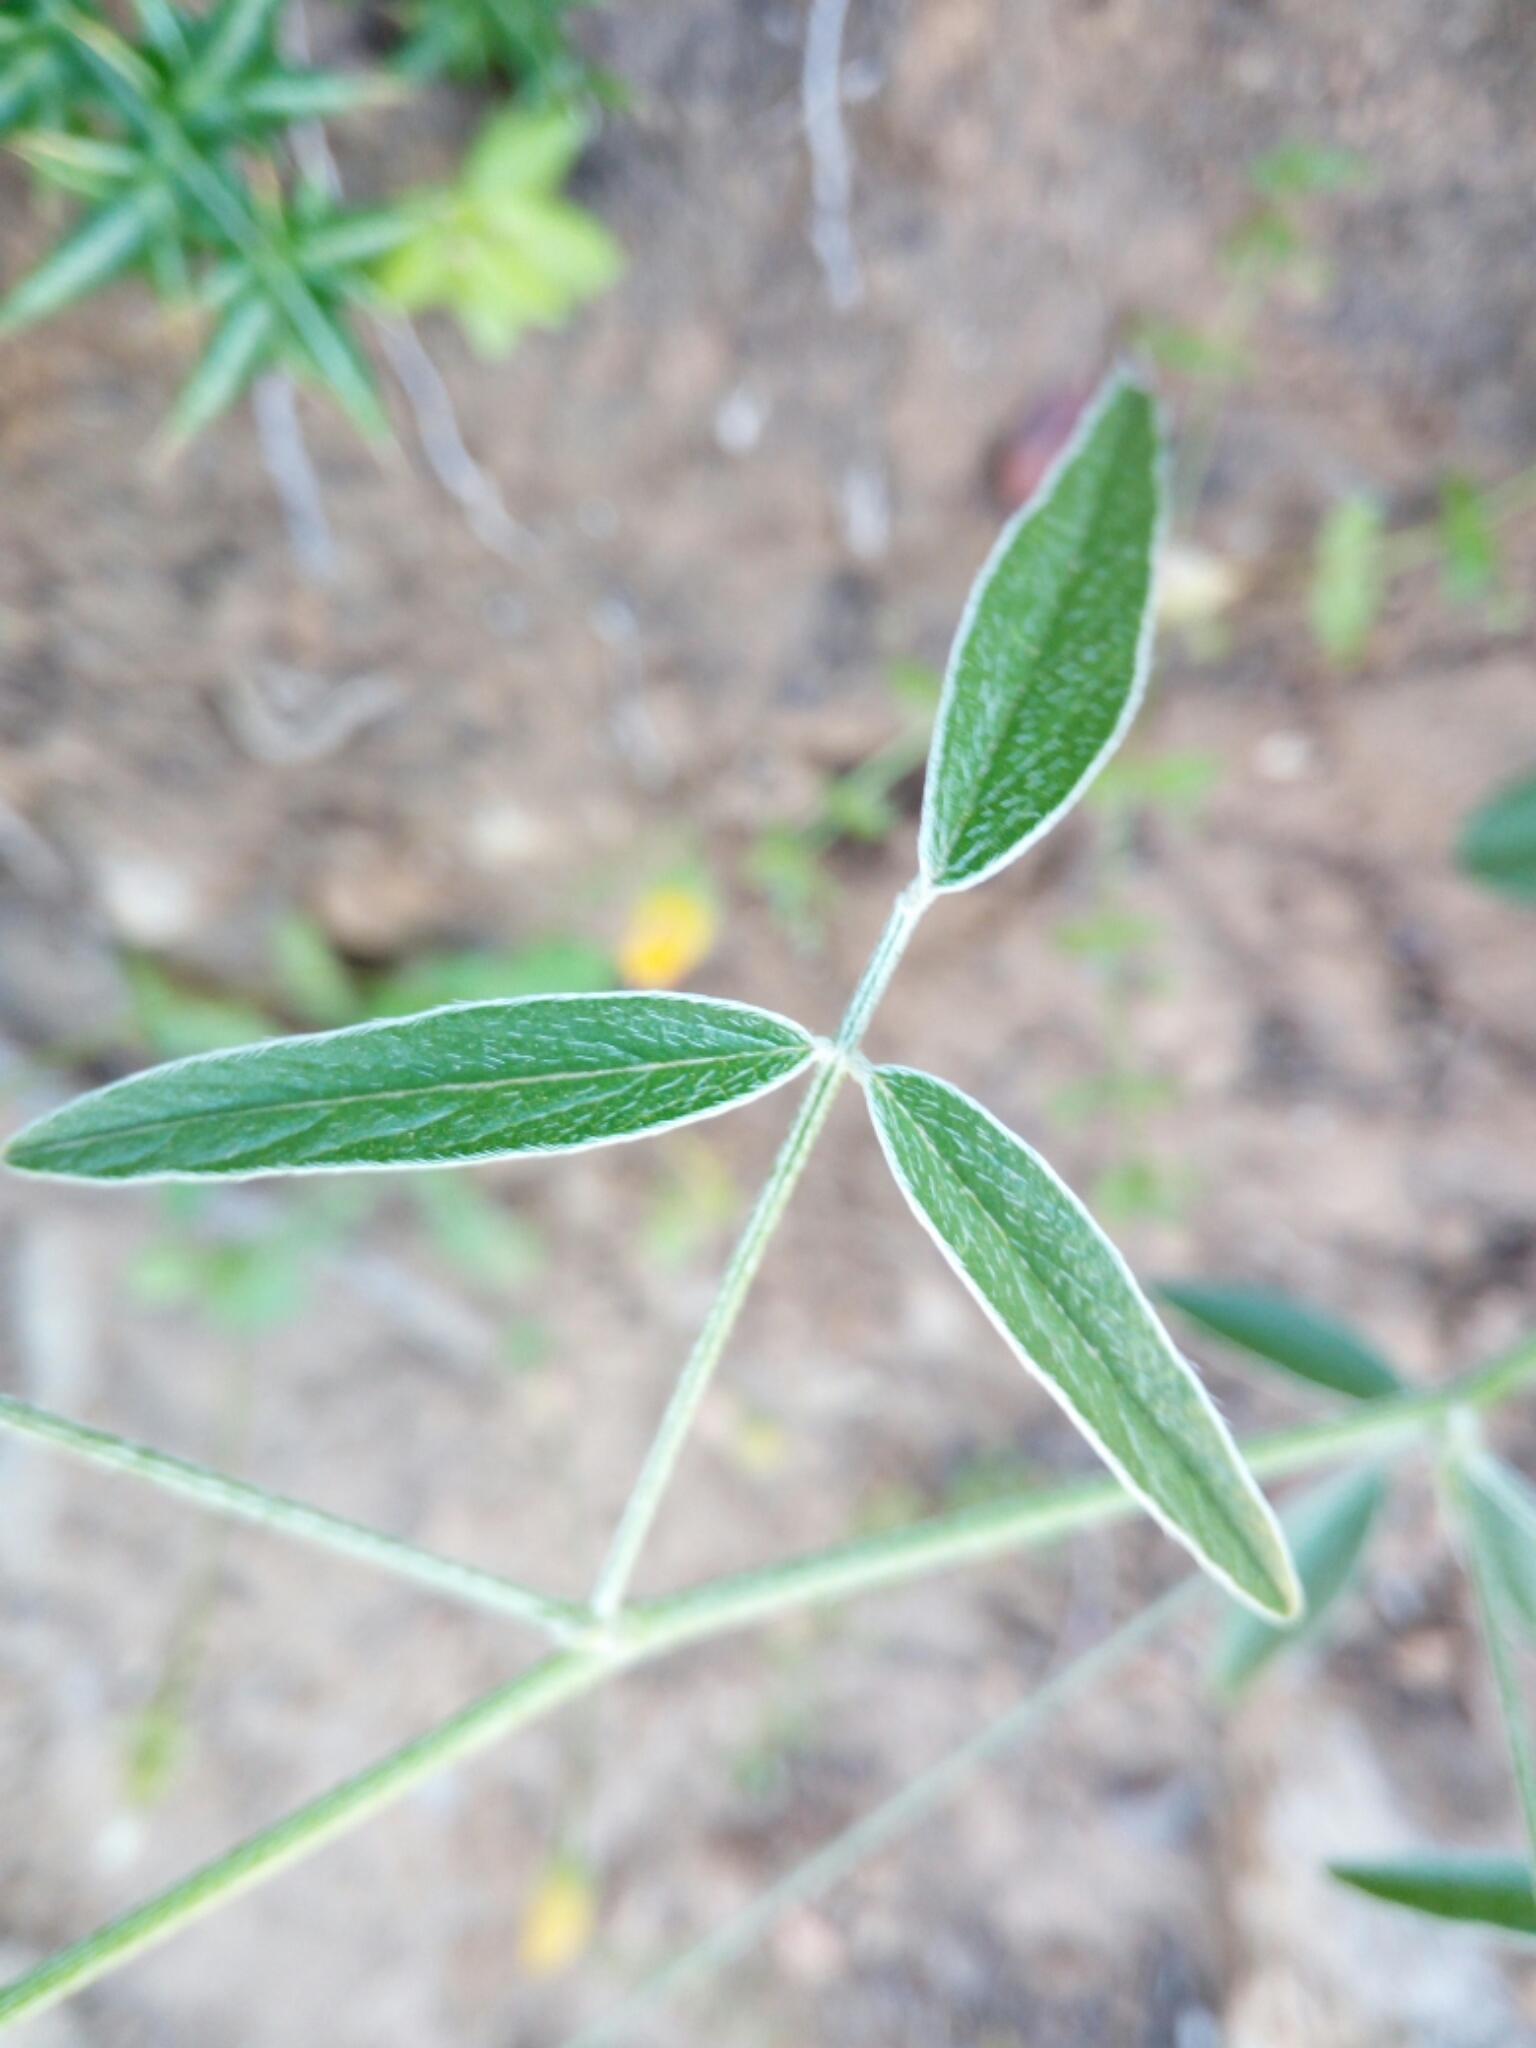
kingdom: Plantae
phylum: Tracheophyta
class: Magnoliopsida
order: Fabales
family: Fabaceae
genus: Bituminaria
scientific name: Bituminaria bituminosa
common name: Arabian pea
